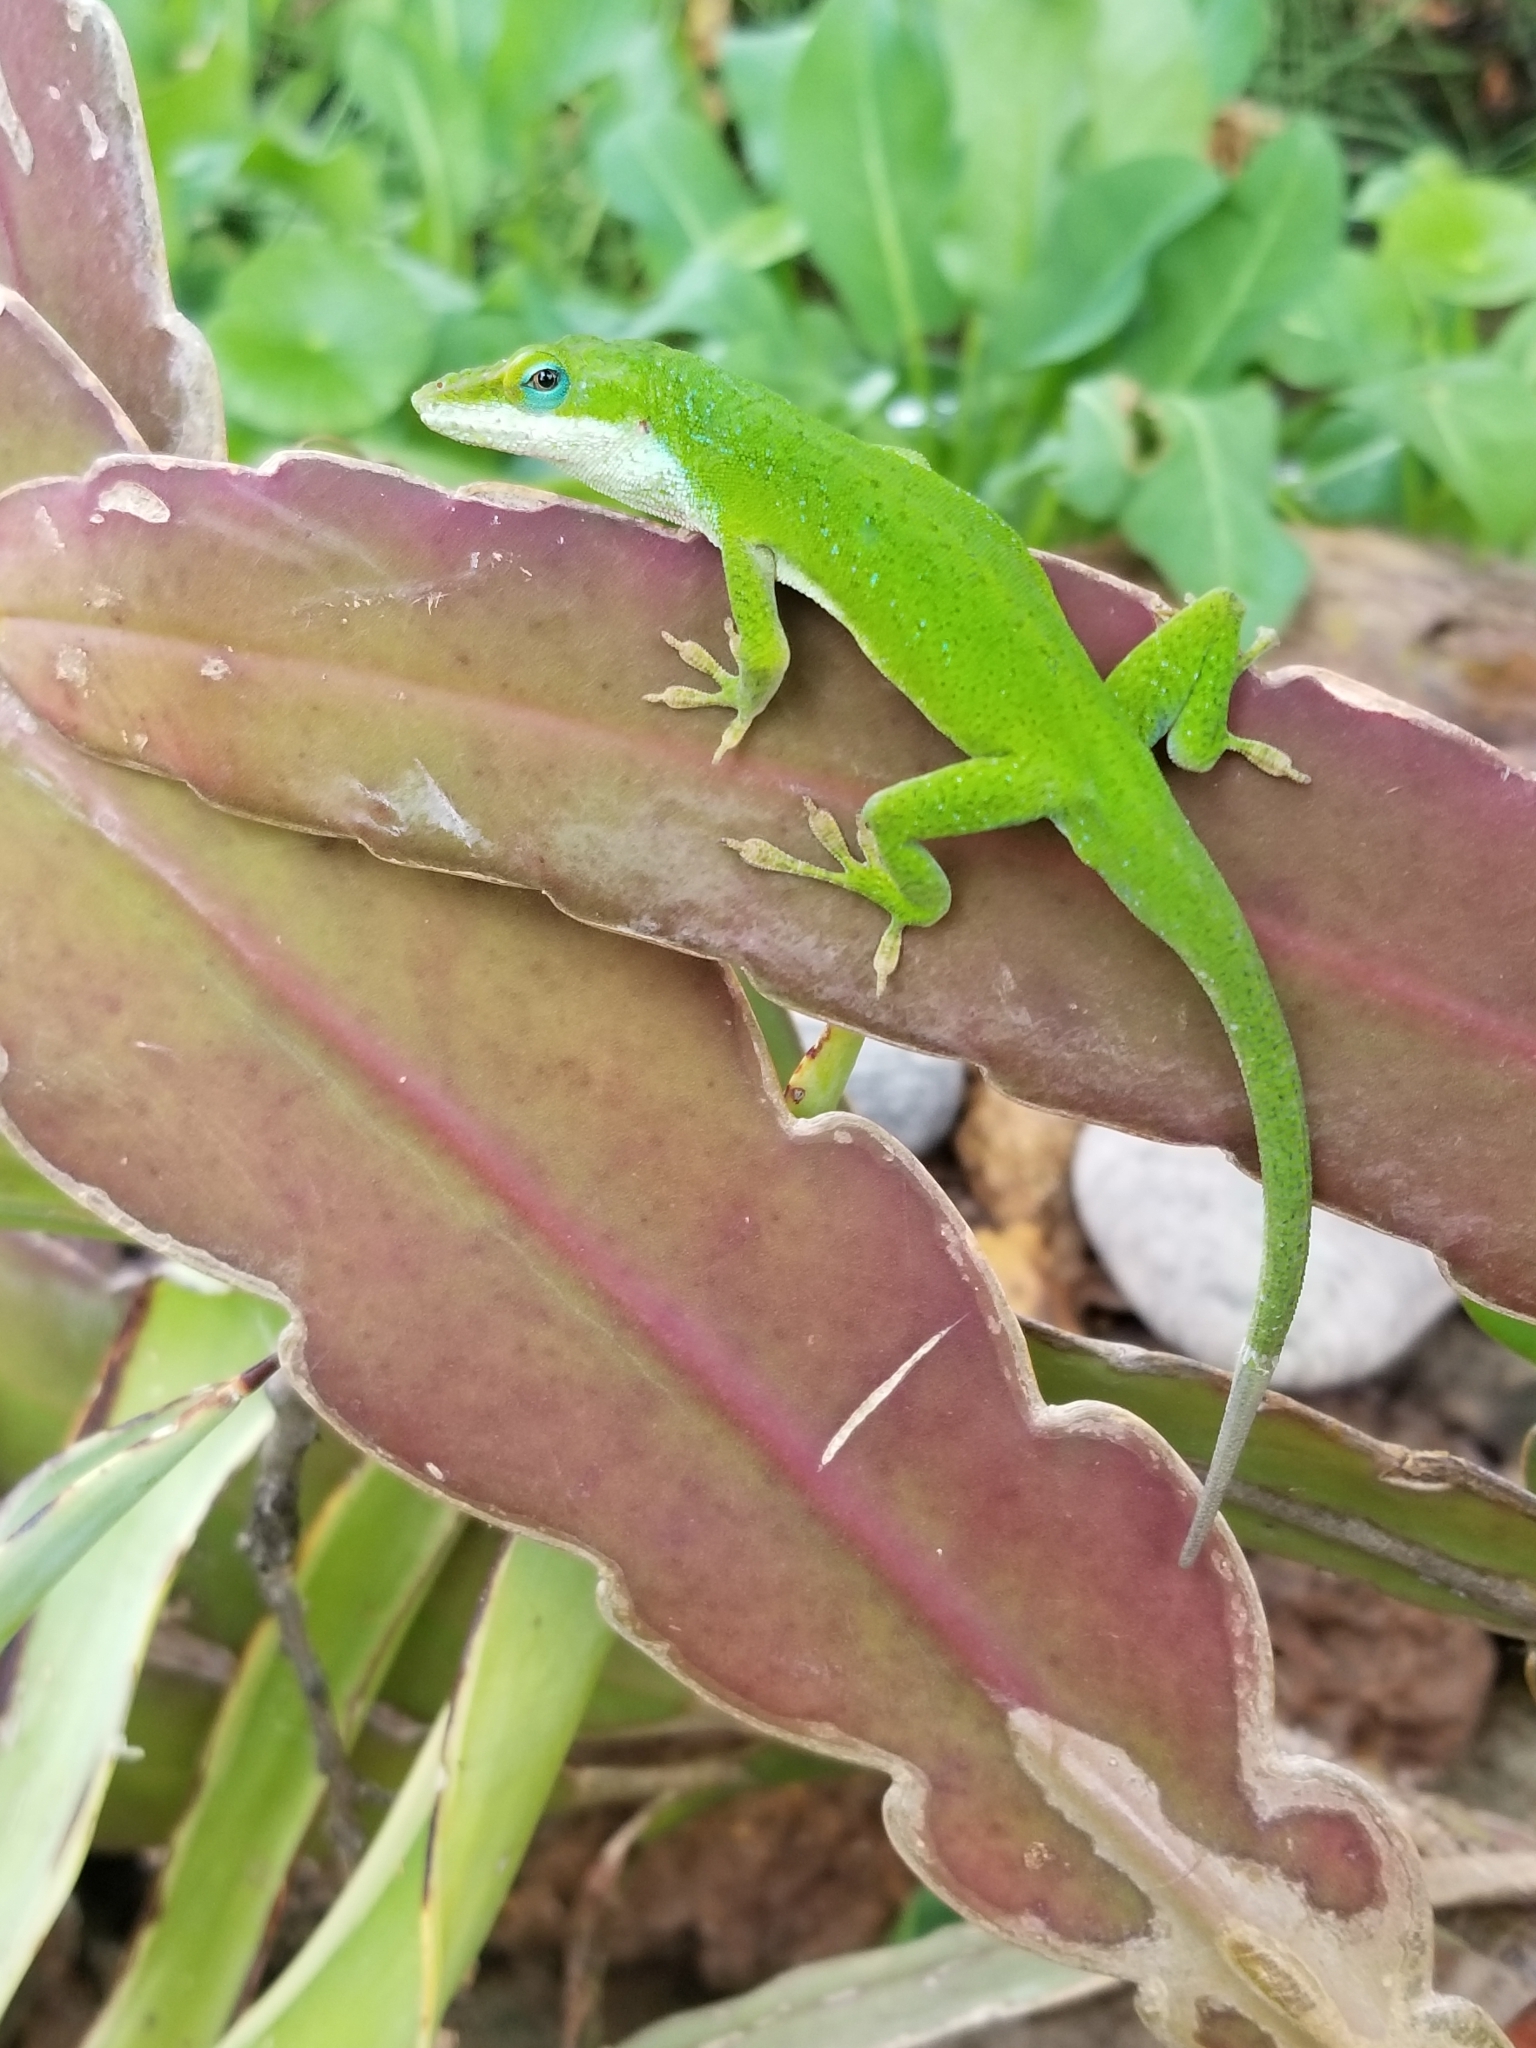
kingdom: Animalia
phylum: Chordata
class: Squamata
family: Dactyloidae
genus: Anolis
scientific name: Anolis carolinensis
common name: Green anole
